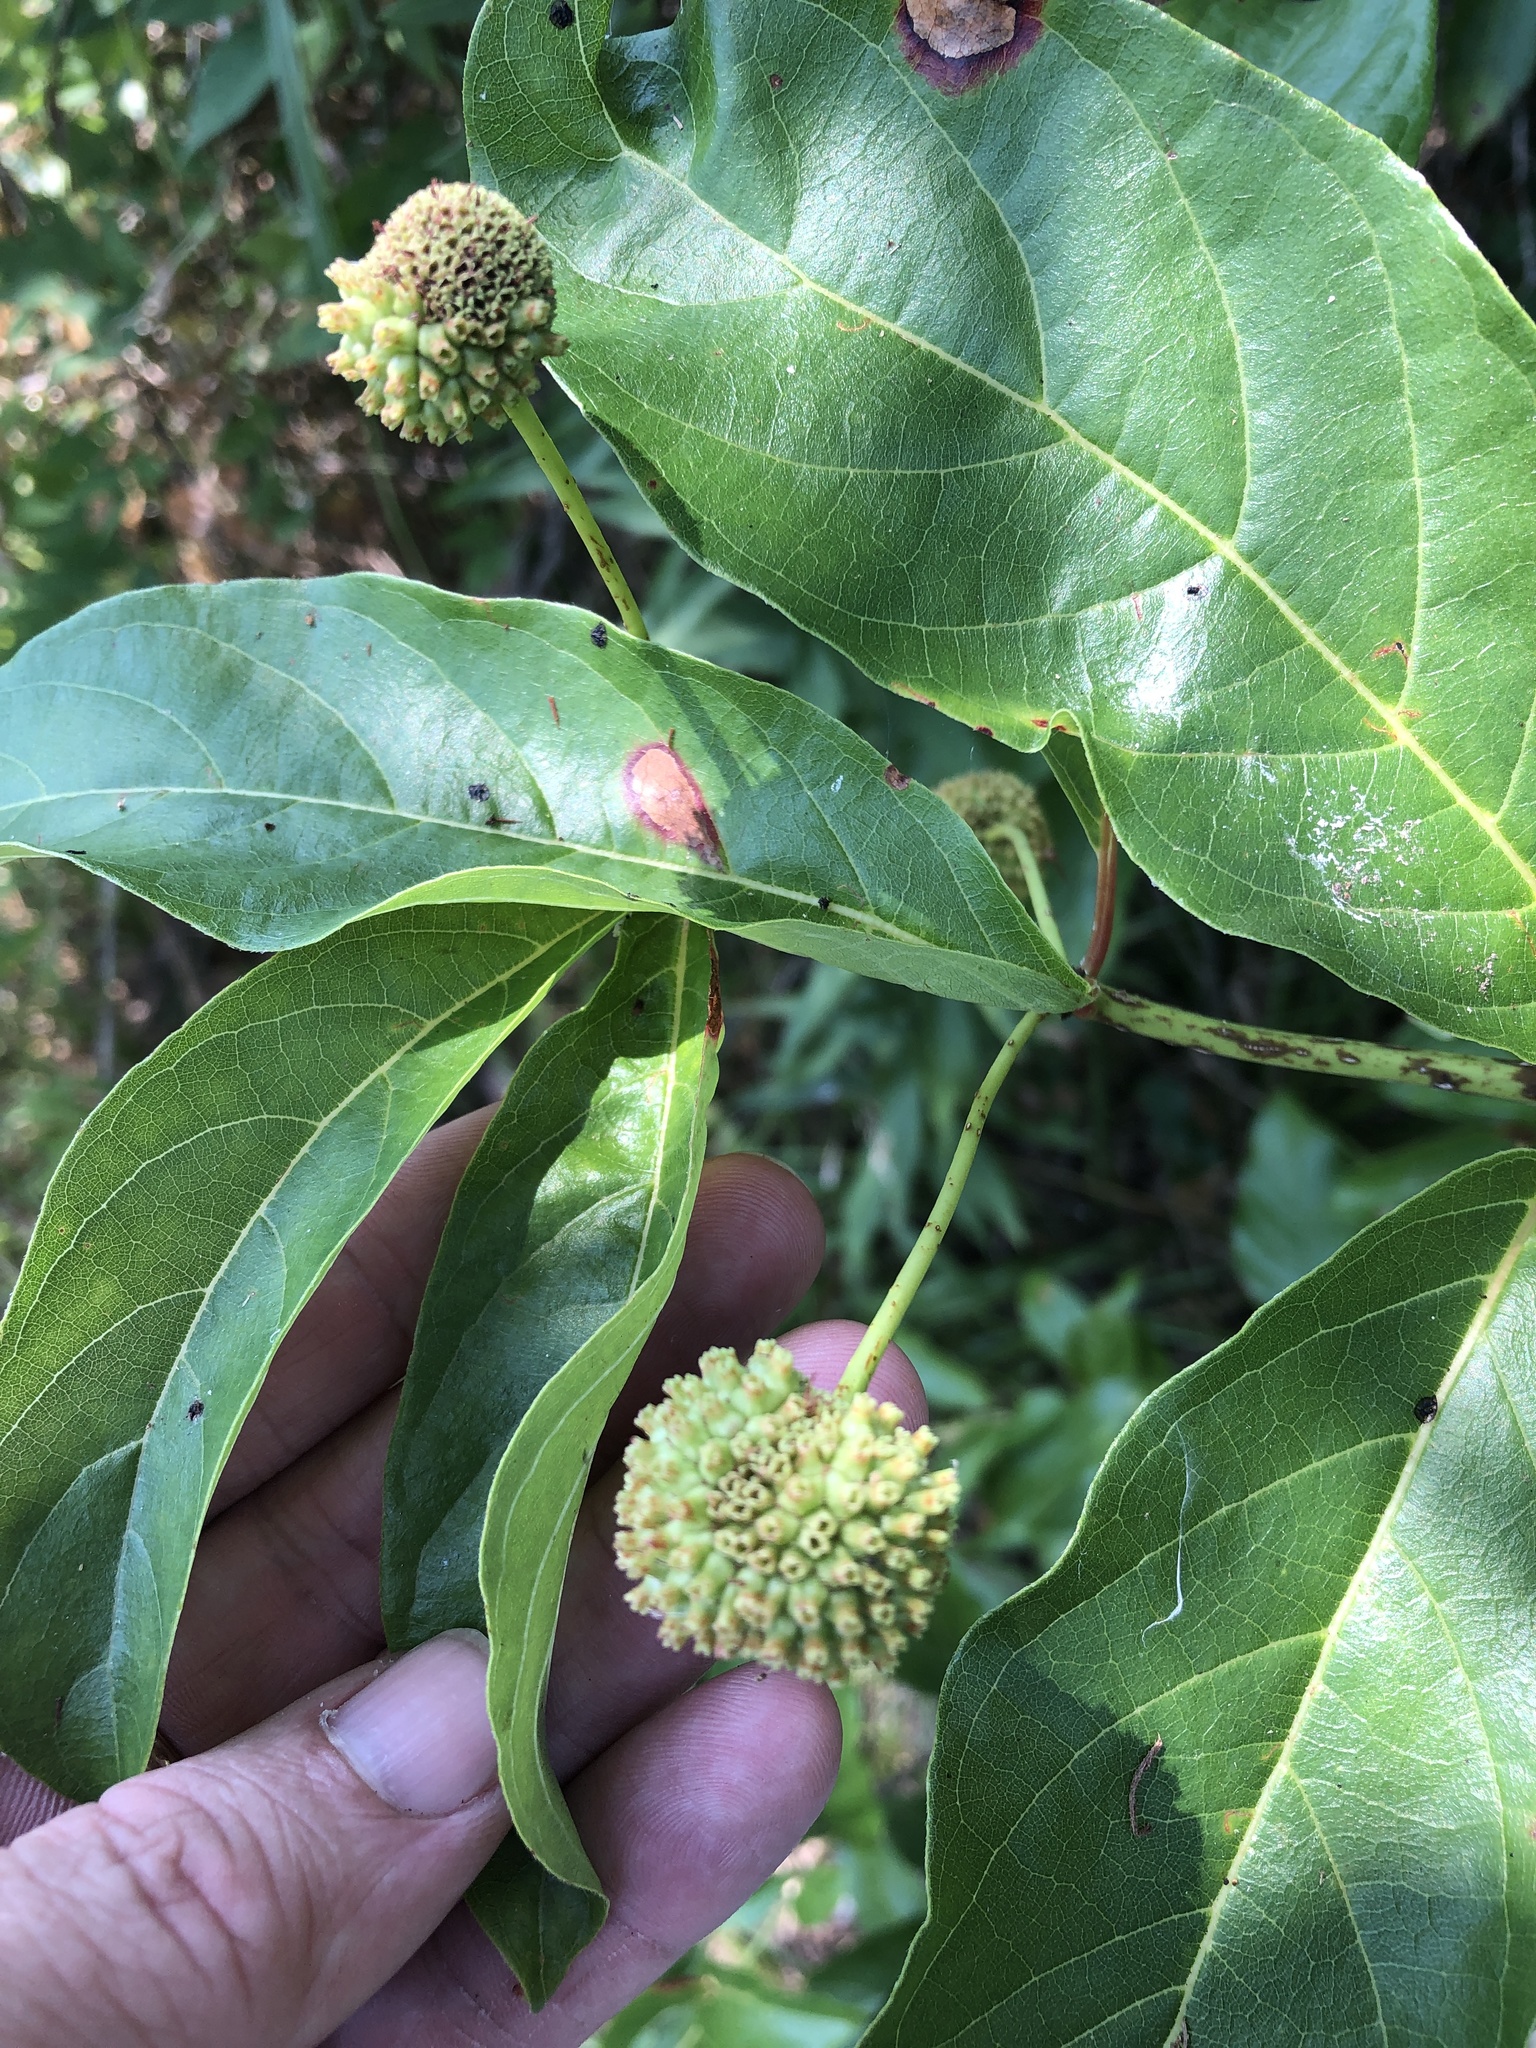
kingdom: Plantae
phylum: Tracheophyta
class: Magnoliopsida
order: Gentianales
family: Rubiaceae
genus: Cephalanthus
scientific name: Cephalanthus occidentalis
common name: Button-willow
